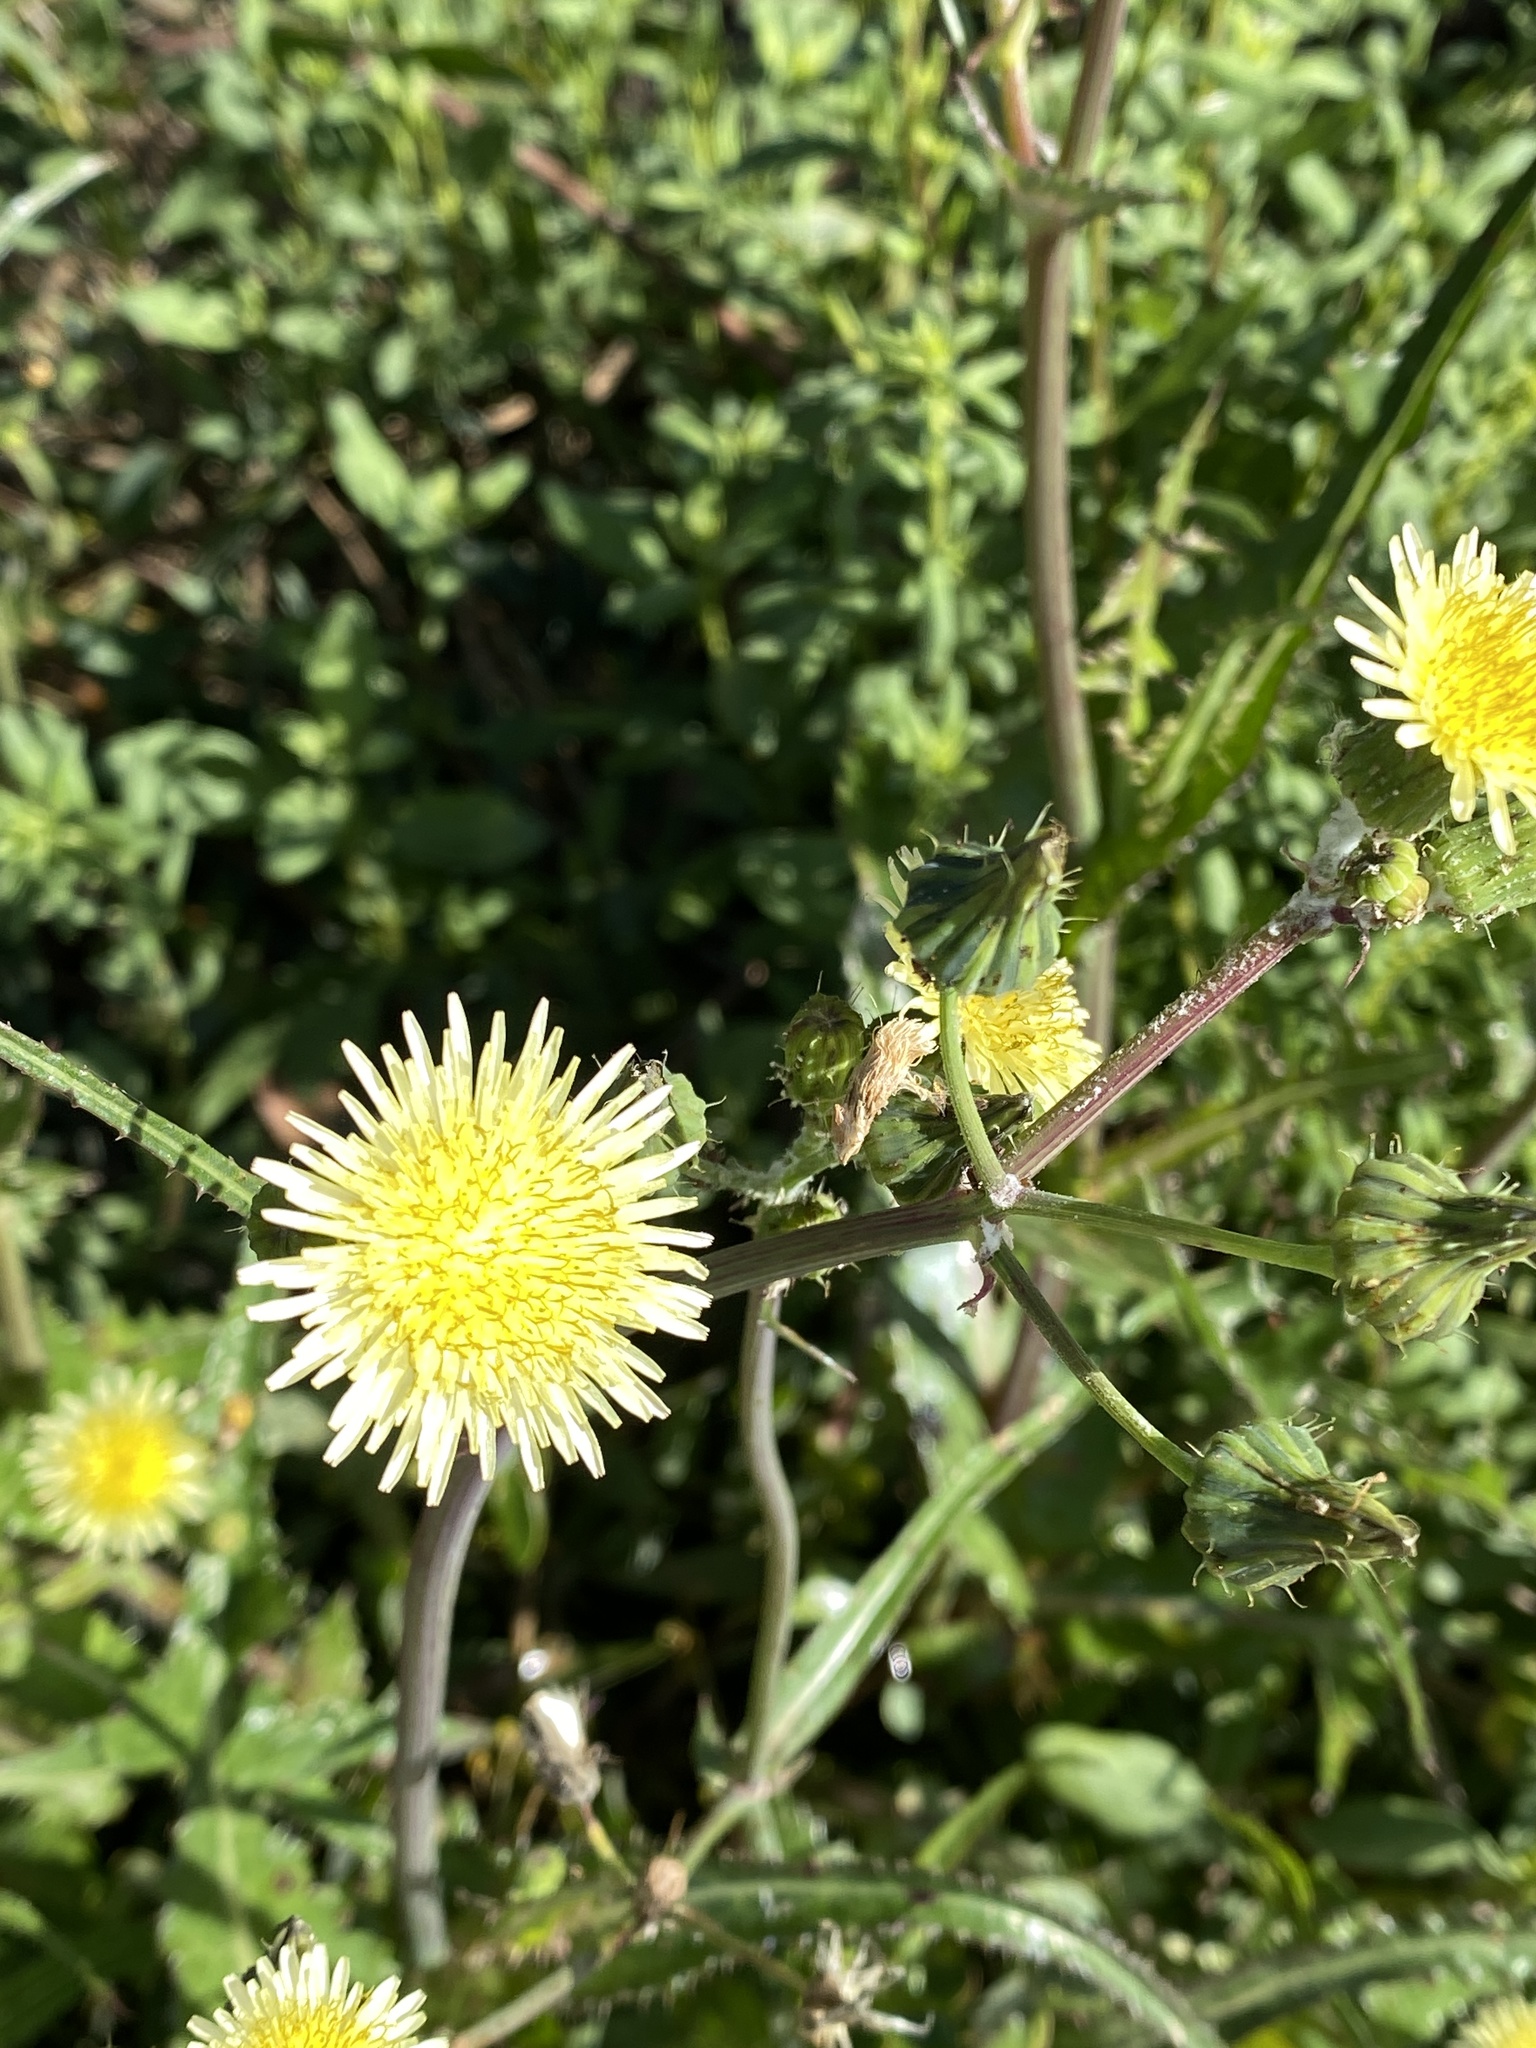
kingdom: Plantae
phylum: Tracheophyta
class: Magnoliopsida
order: Asterales
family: Asteraceae
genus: Sonchus
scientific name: Sonchus oleraceus
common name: Common sowthistle
